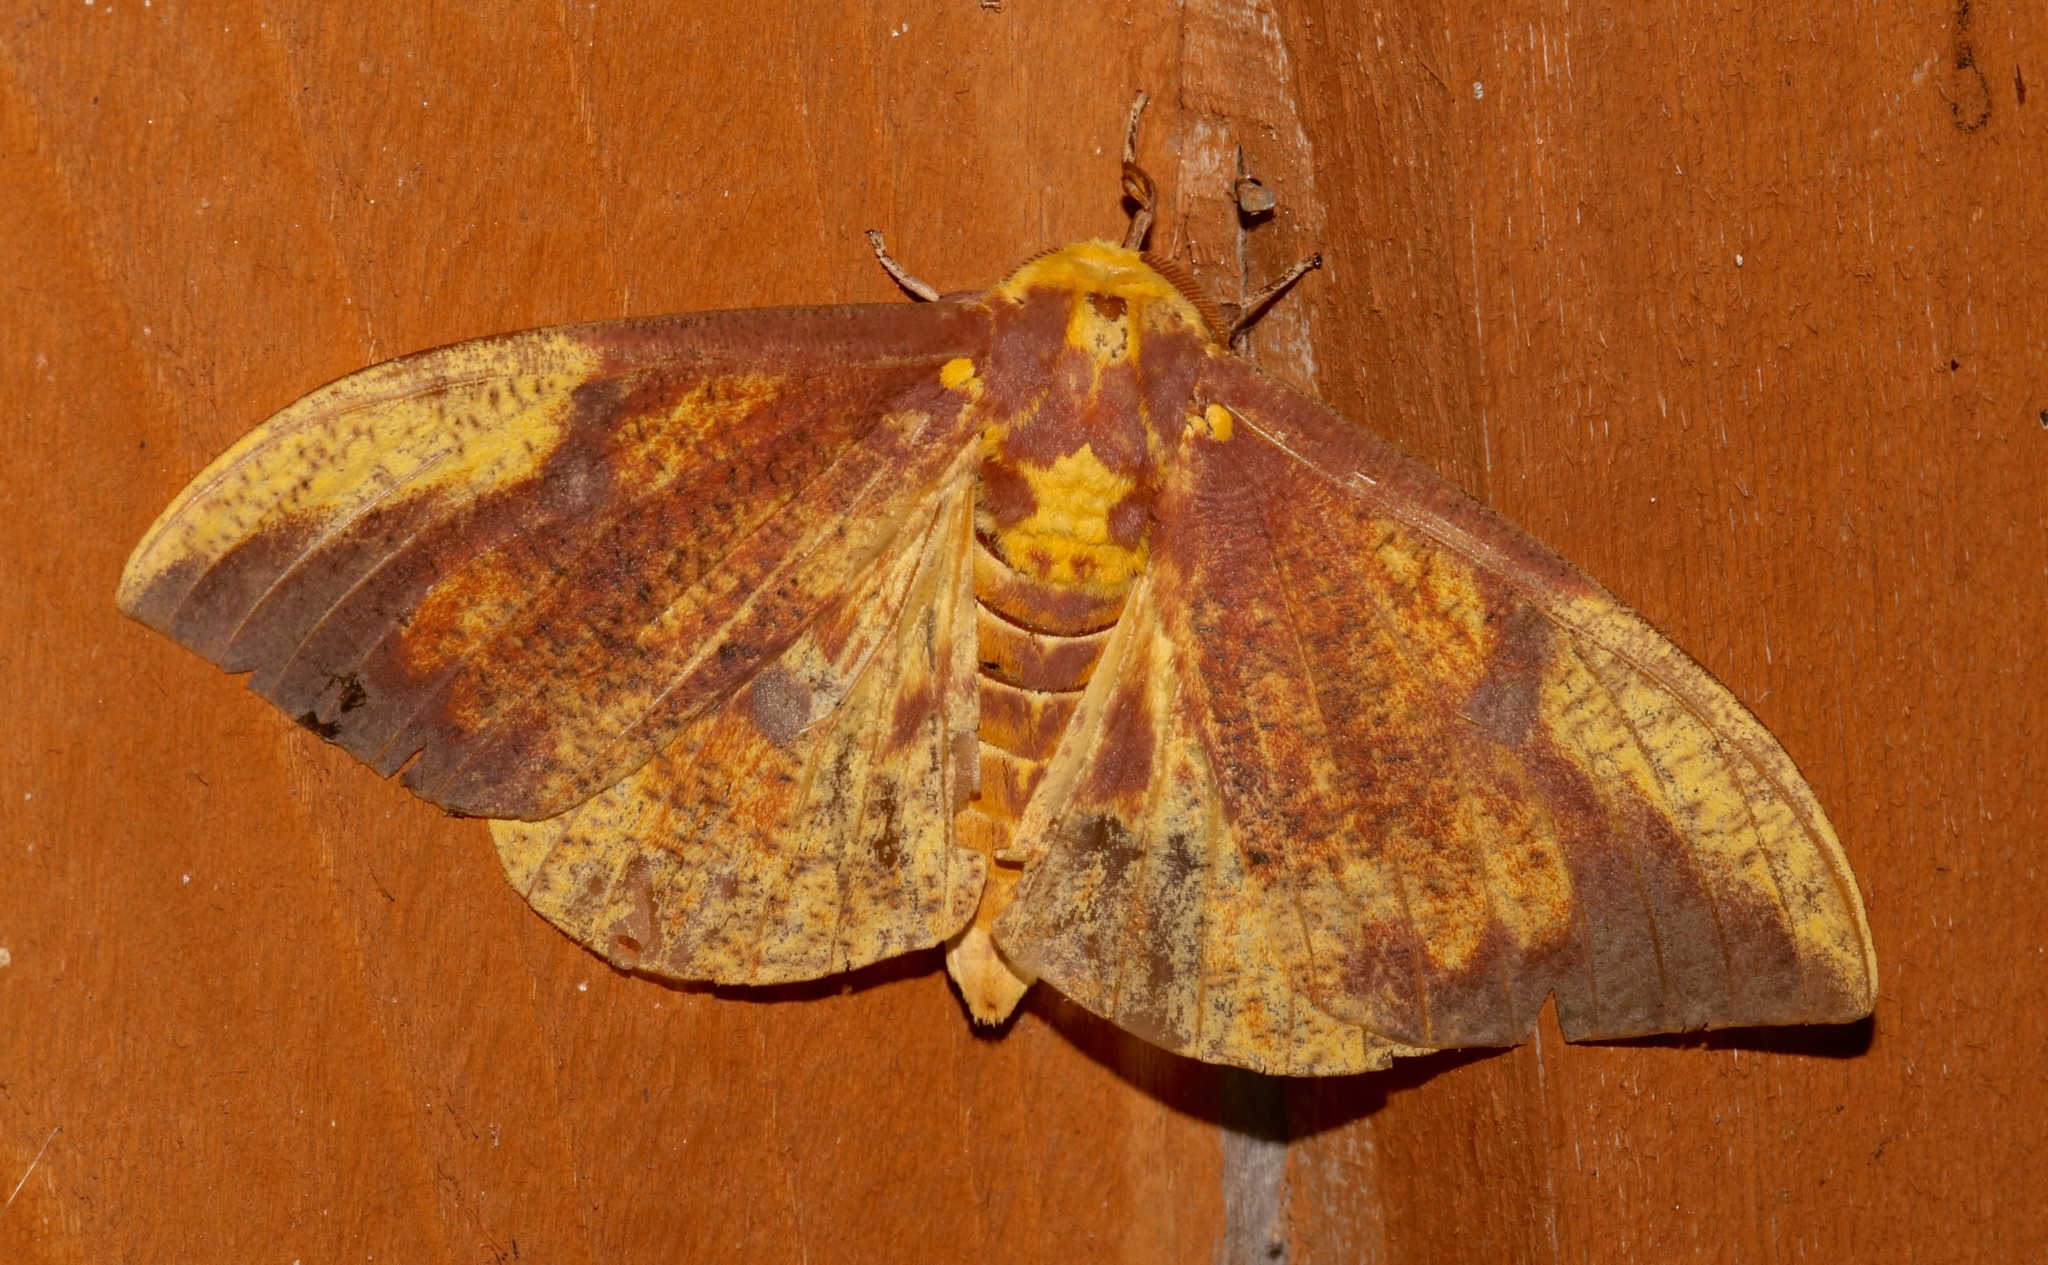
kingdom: Animalia
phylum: Arthropoda
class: Insecta
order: Lepidoptera
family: Saturniidae
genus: Eacles
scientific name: Eacles imperialis
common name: Imperial moth
